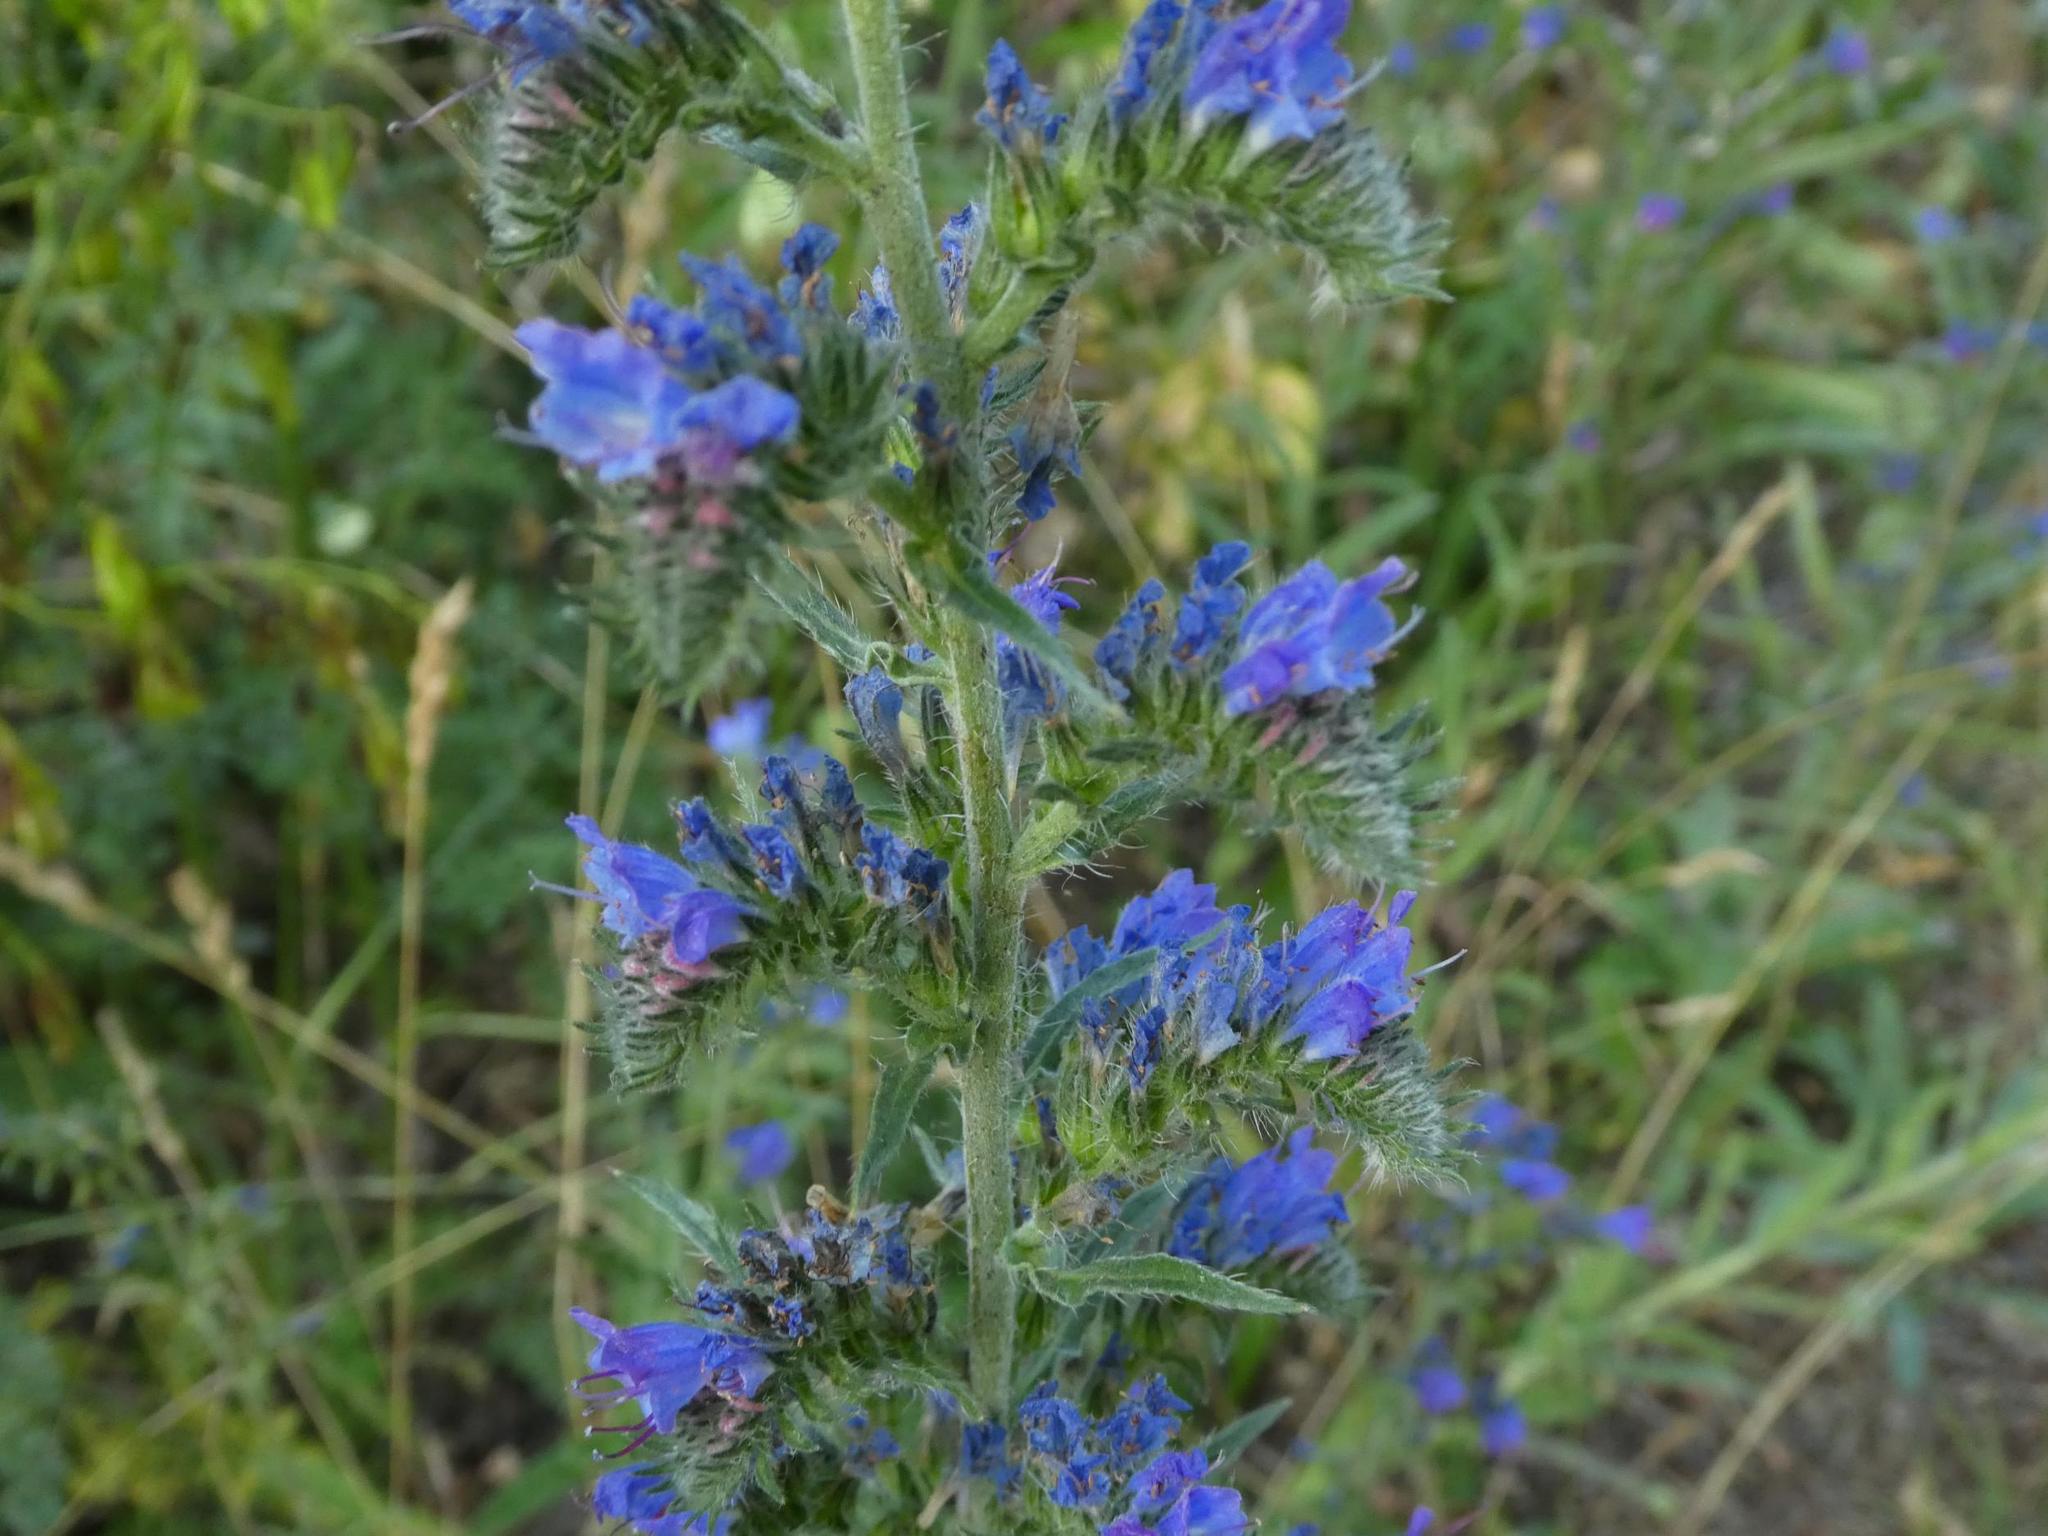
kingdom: Plantae
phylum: Tracheophyta
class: Magnoliopsida
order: Boraginales
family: Boraginaceae
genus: Echium
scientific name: Echium vulgare
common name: Common viper's bugloss
